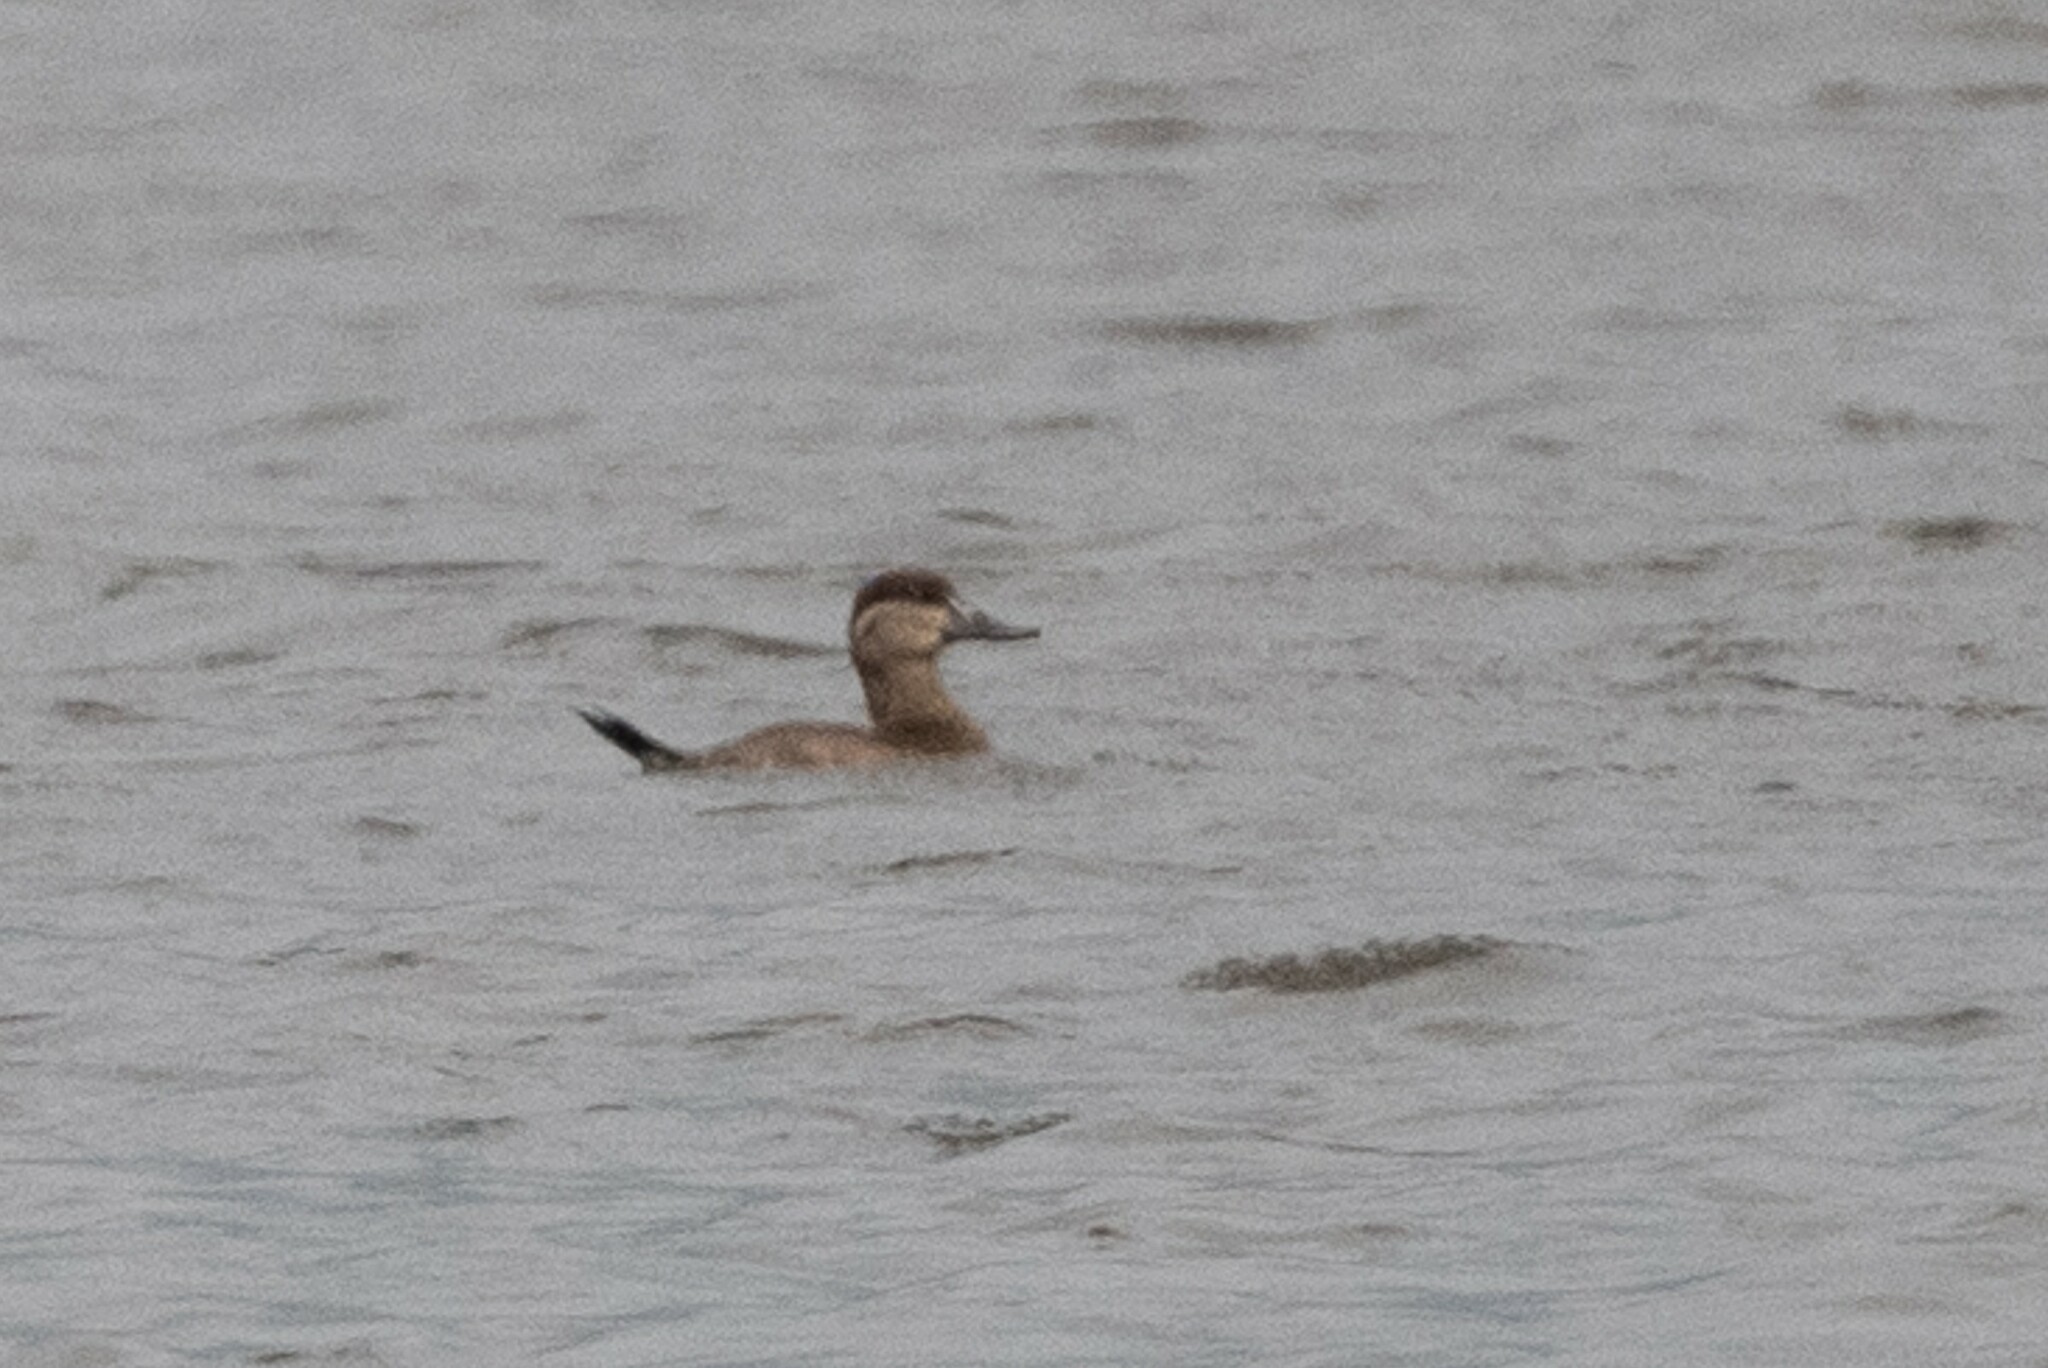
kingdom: Animalia
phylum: Chordata
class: Aves
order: Anseriformes
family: Anatidae
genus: Oxyura
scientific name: Oxyura jamaicensis
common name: Ruddy duck
